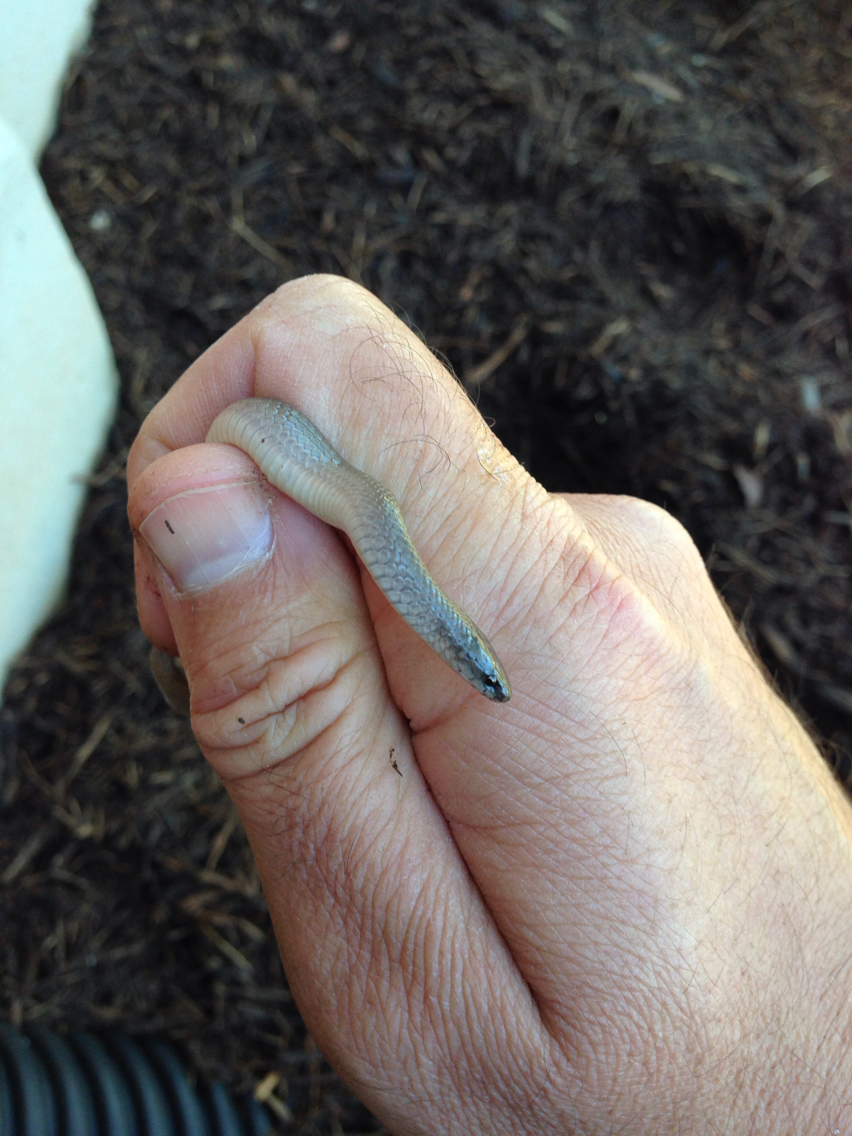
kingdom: Animalia
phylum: Chordata
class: Squamata
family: Colubridae
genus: Haldea
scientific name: Haldea striatula
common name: Rough earth snake
